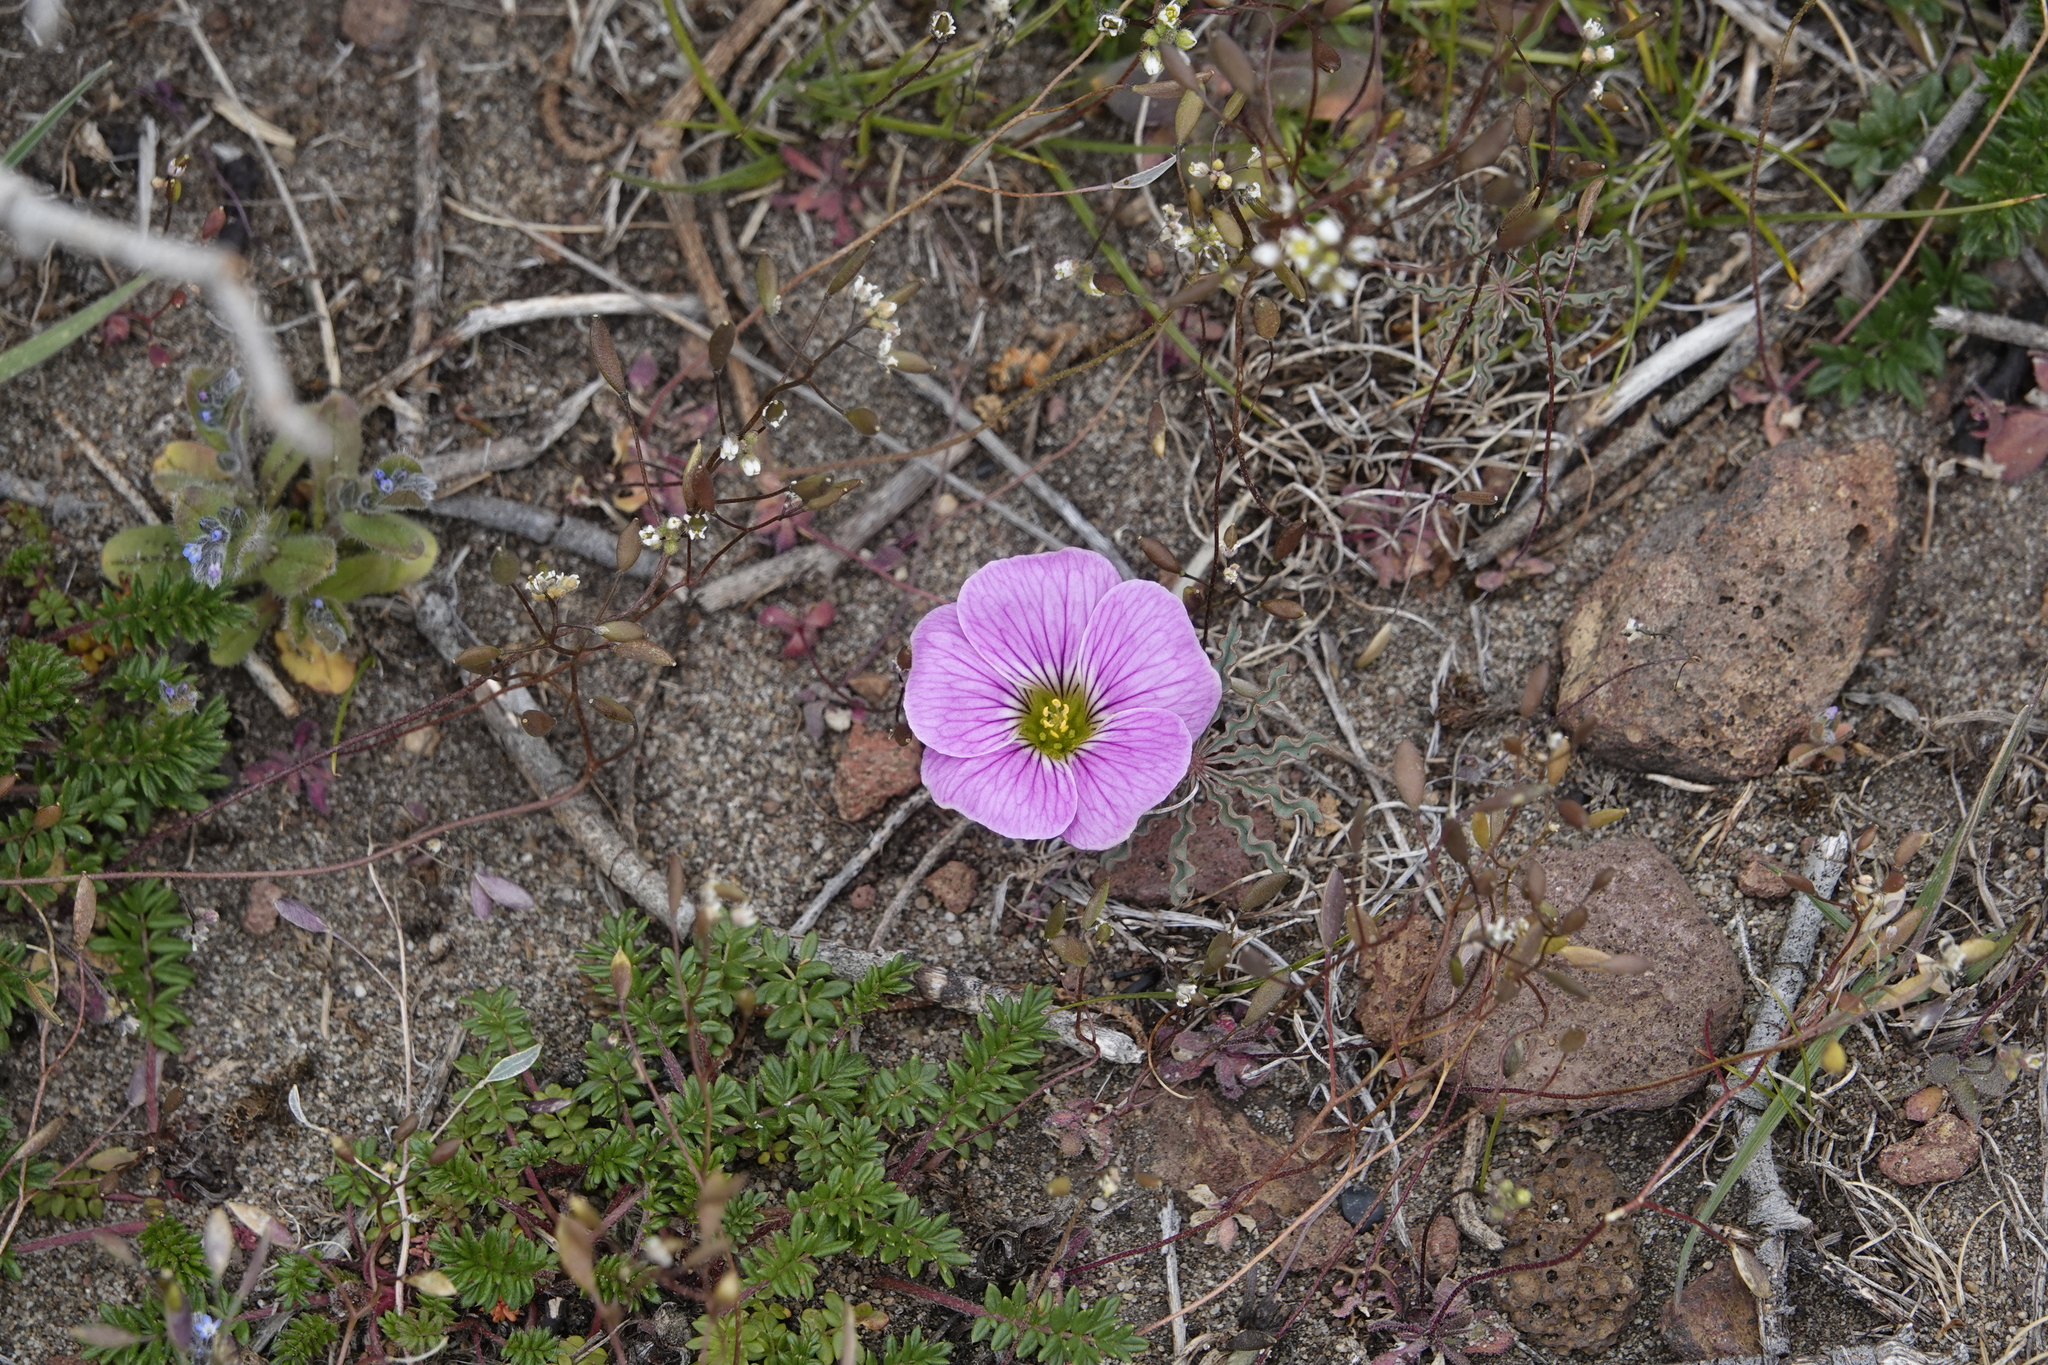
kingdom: Plantae
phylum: Tracheophyta
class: Magnoliopsida
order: Oxalidales
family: Oxalidaceae
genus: Oxalis
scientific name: Oxalis laciniata
